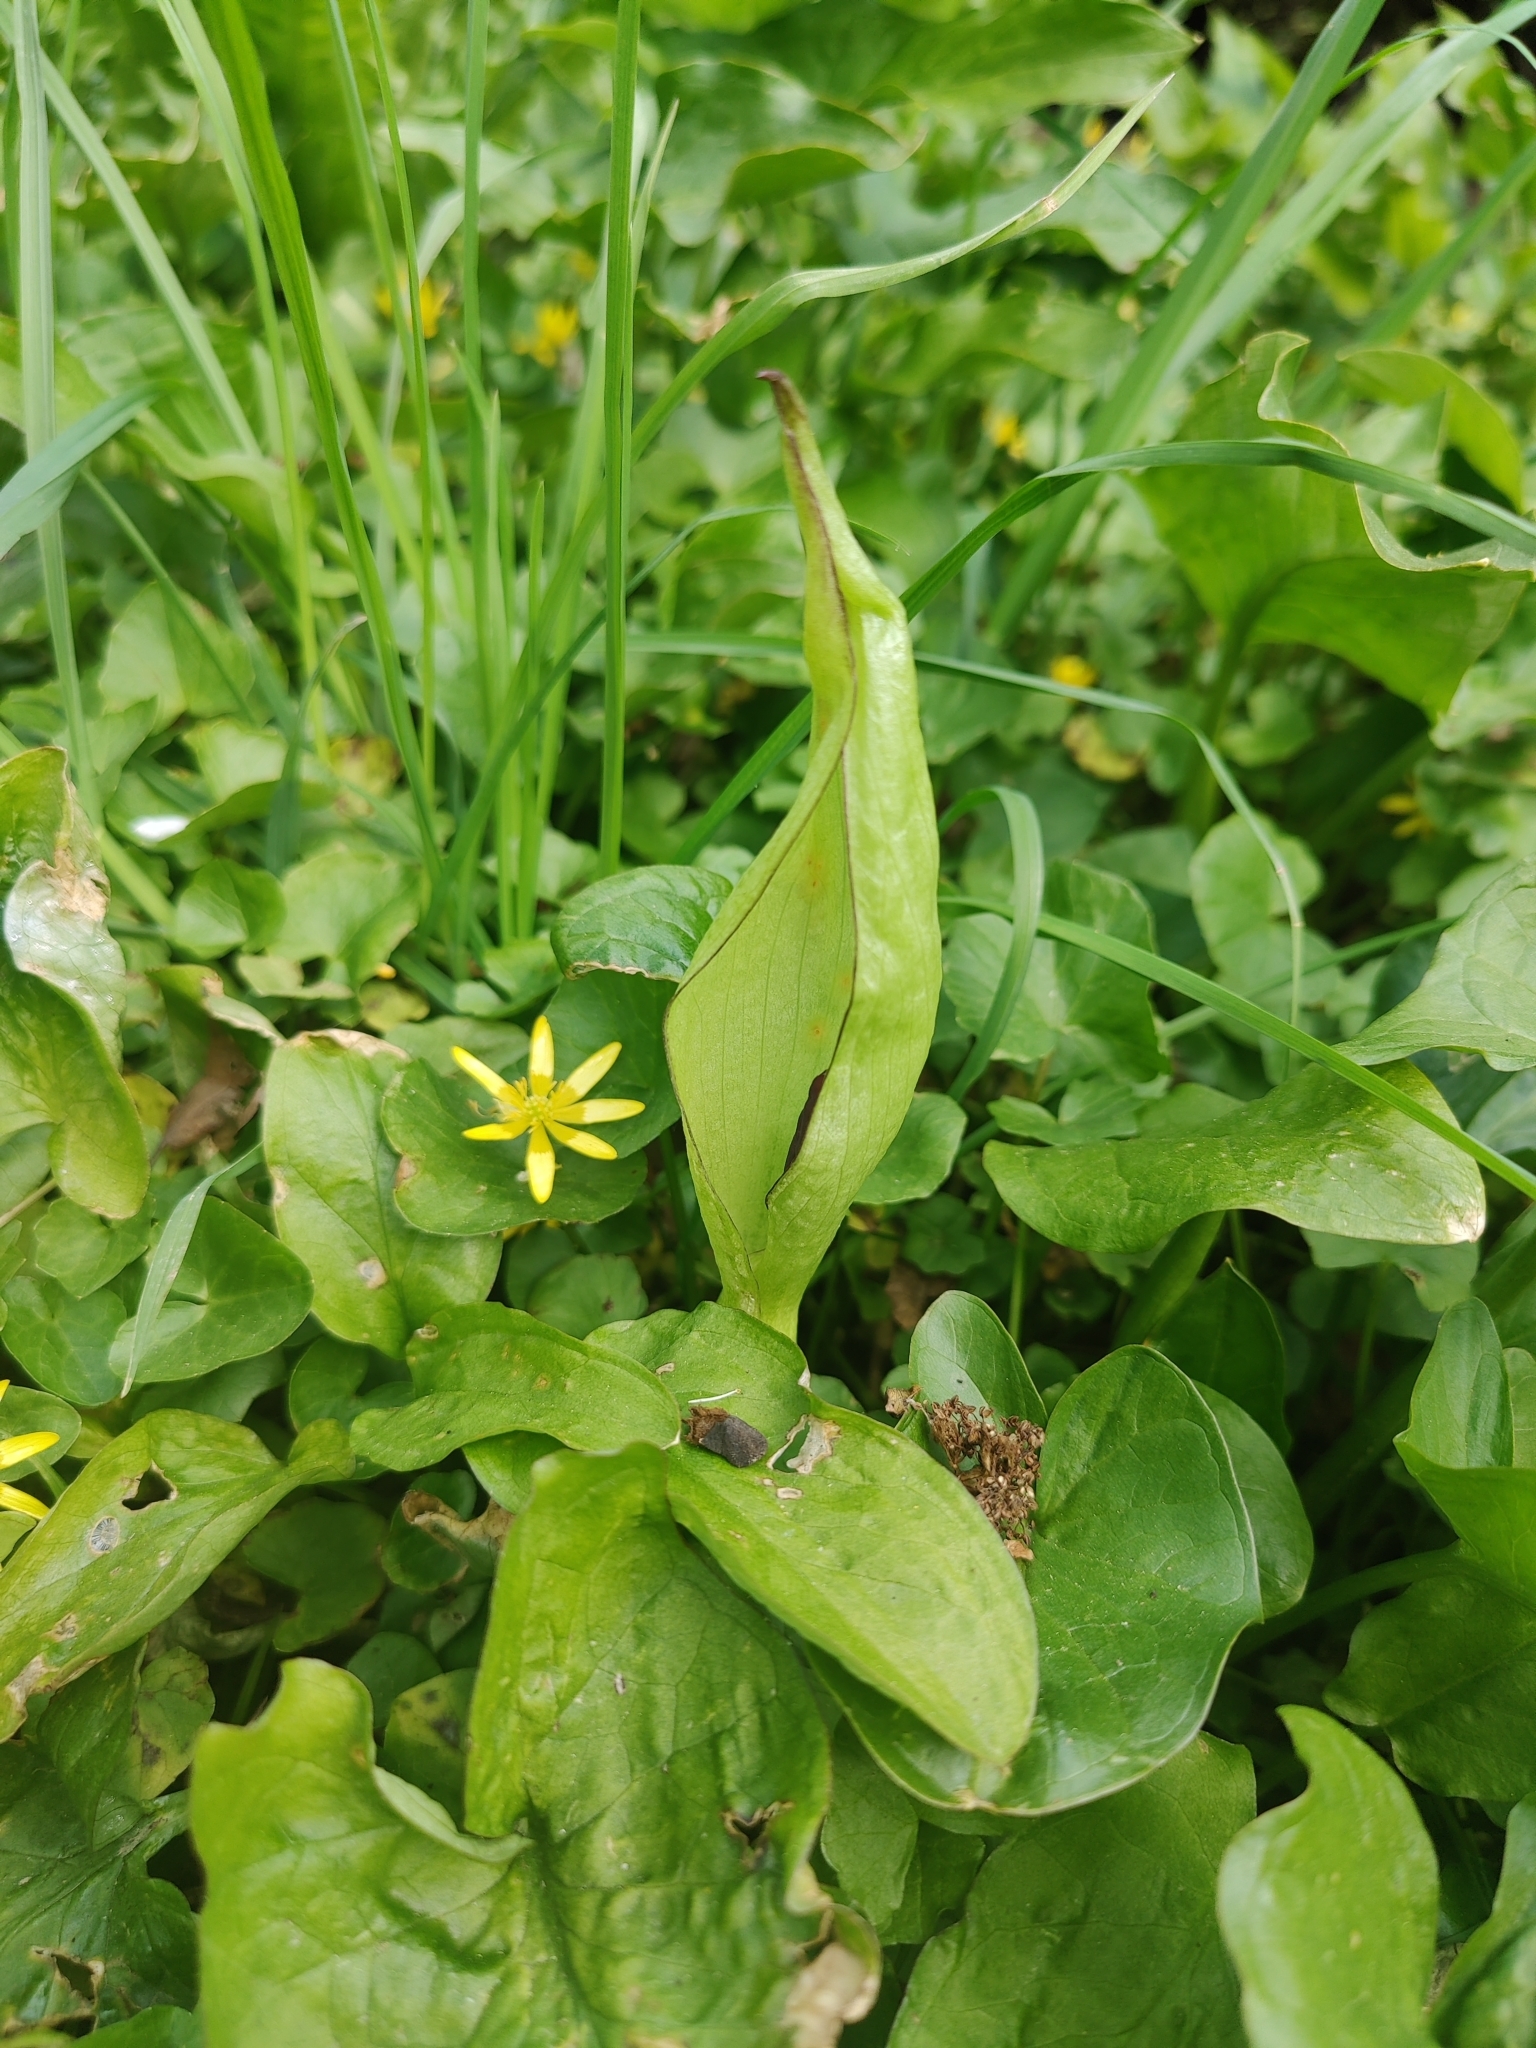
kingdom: Plantae
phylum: Tracheophyta
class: Liliopsida
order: Alismatales
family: Araceae
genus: Arum
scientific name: Arum maculatum
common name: Lords-and-ladies
